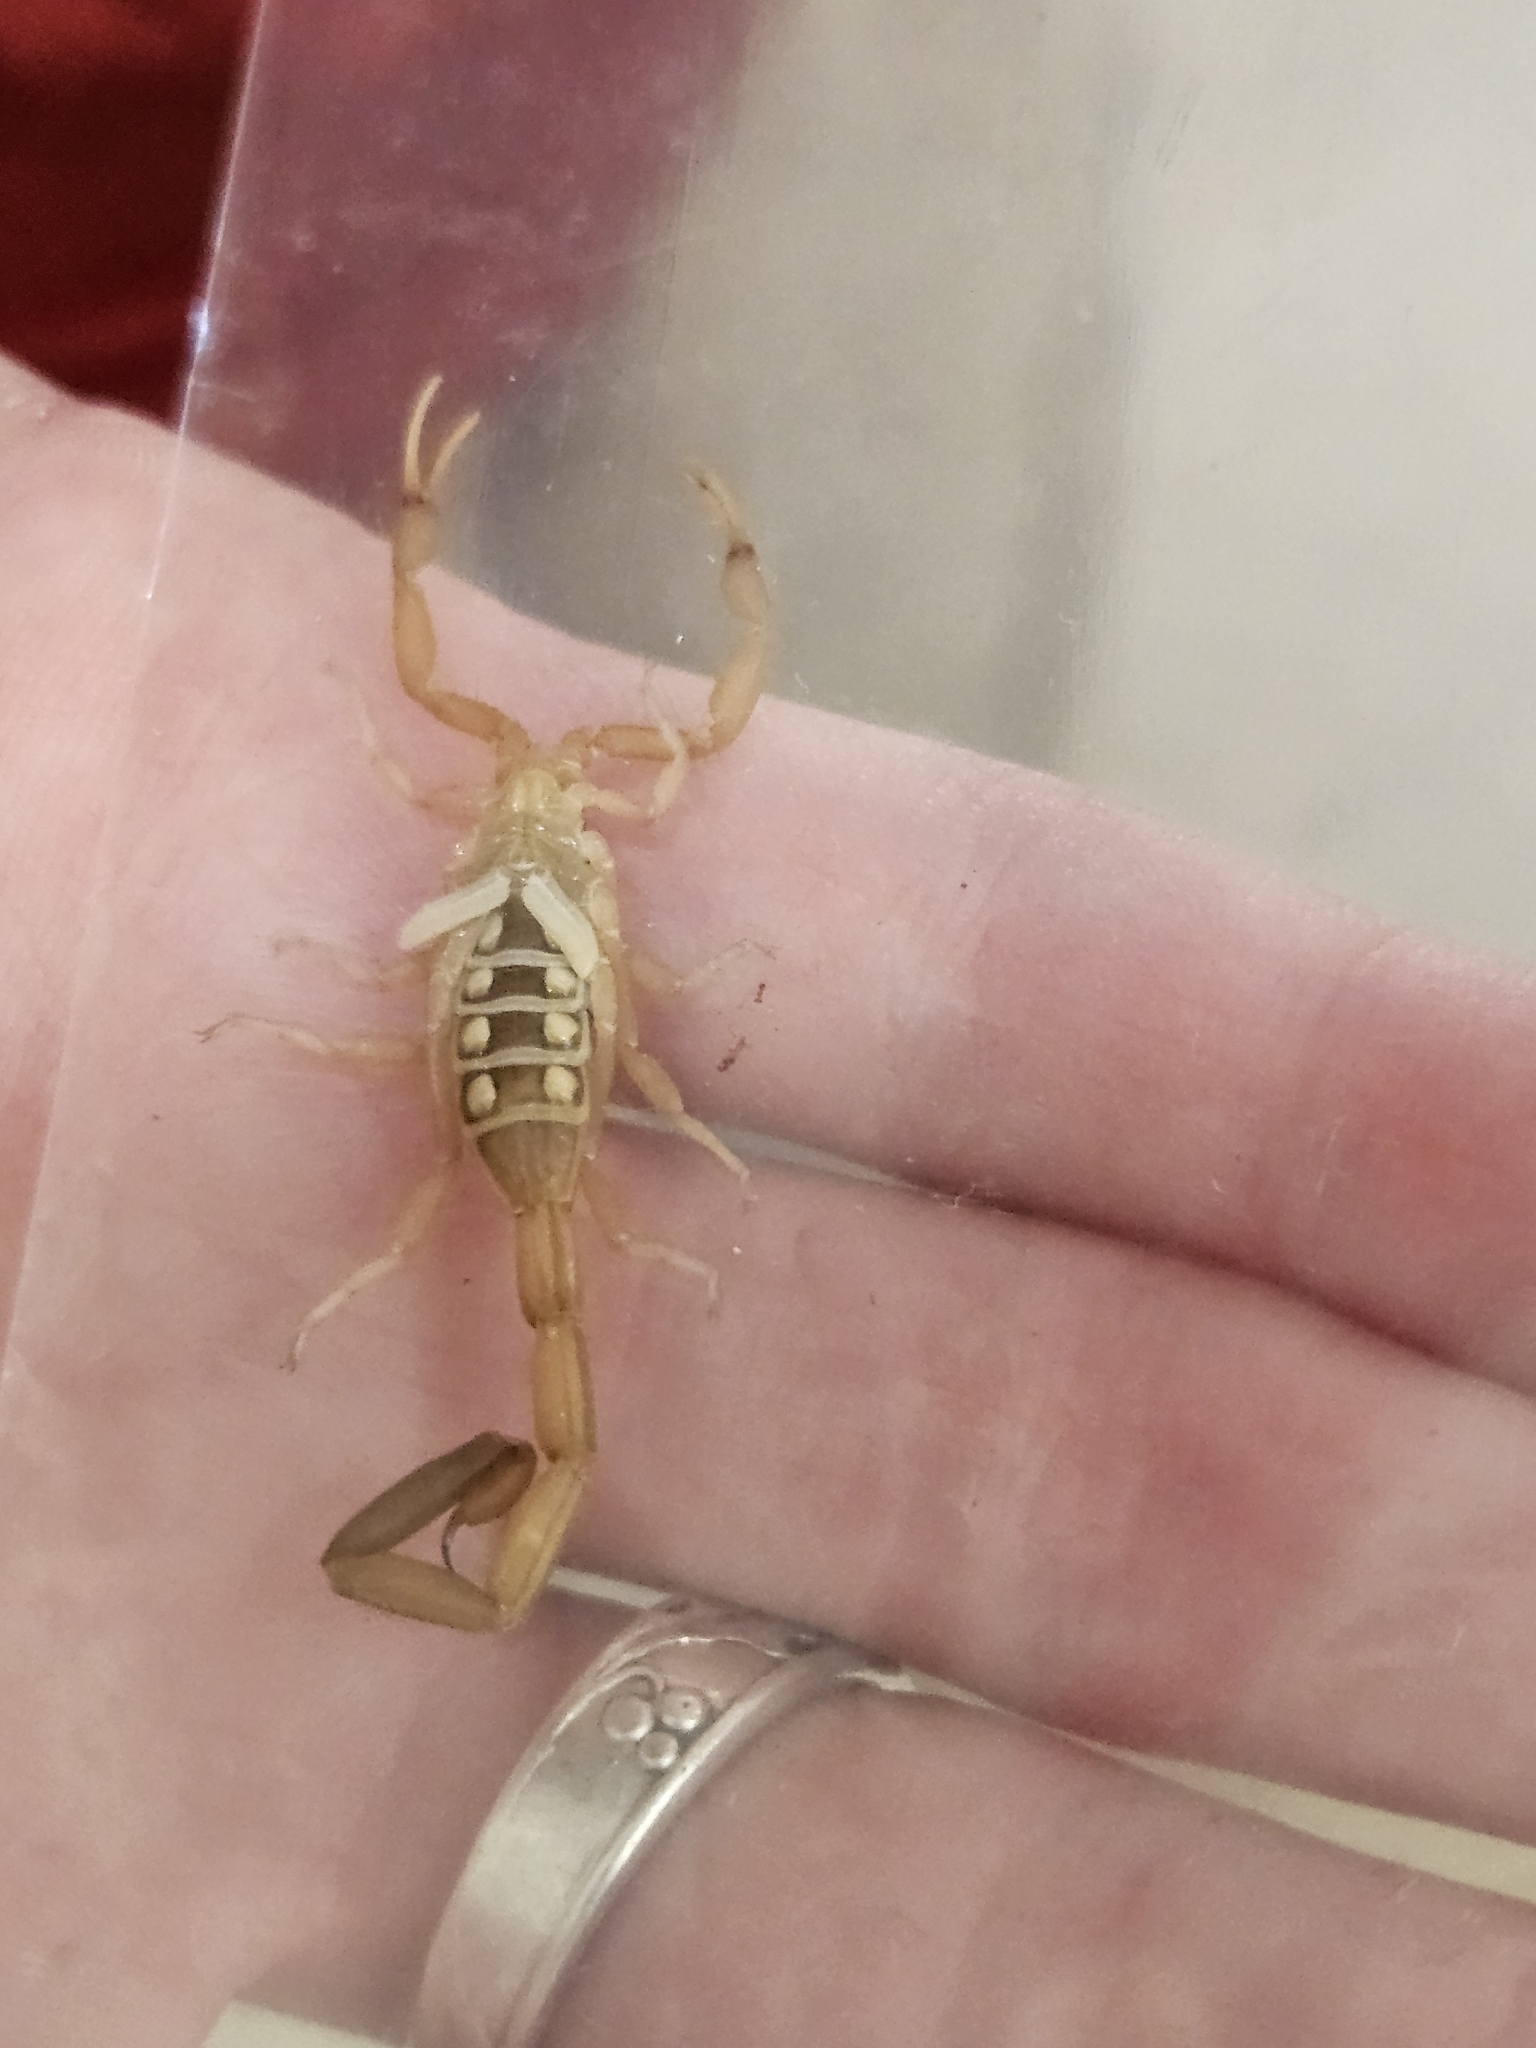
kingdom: Animalia
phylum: Arthropoda
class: Arachnida
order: Scorpiones
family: Buthidae
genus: Centruroides
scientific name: Centruroides vittatus
